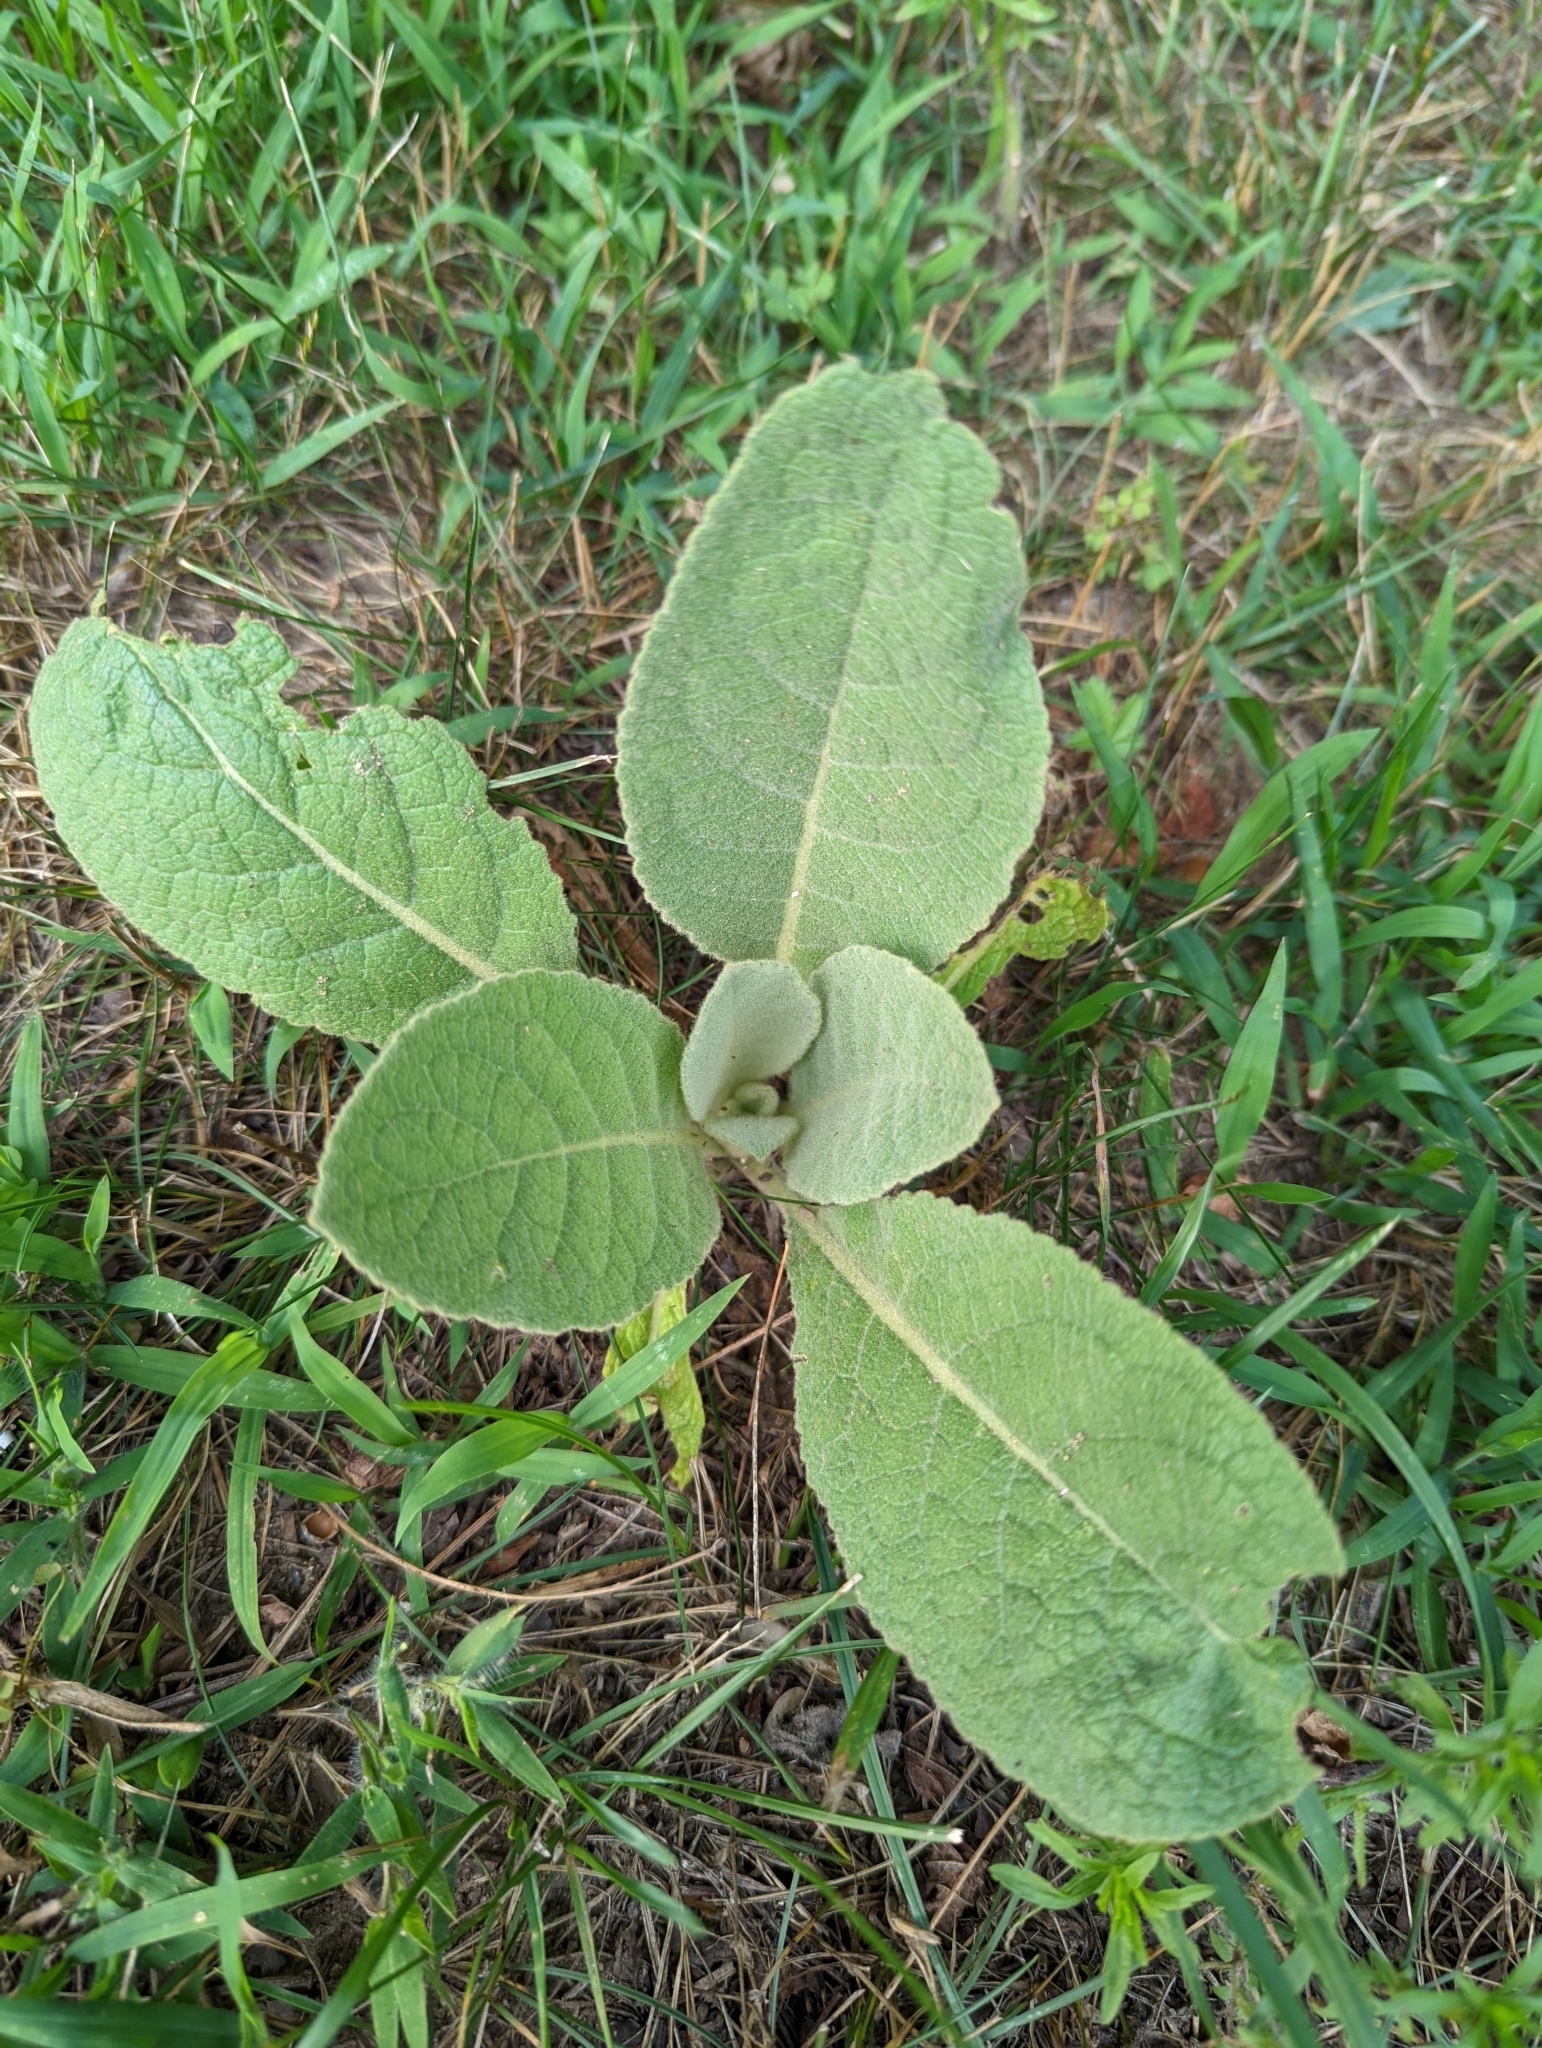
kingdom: Plantae
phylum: Tracheophyta
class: Magnoliopsida
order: Lamiales
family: Scrophulariaceae
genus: Verbascum
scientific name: Verbascum thapsus
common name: Common mullein
